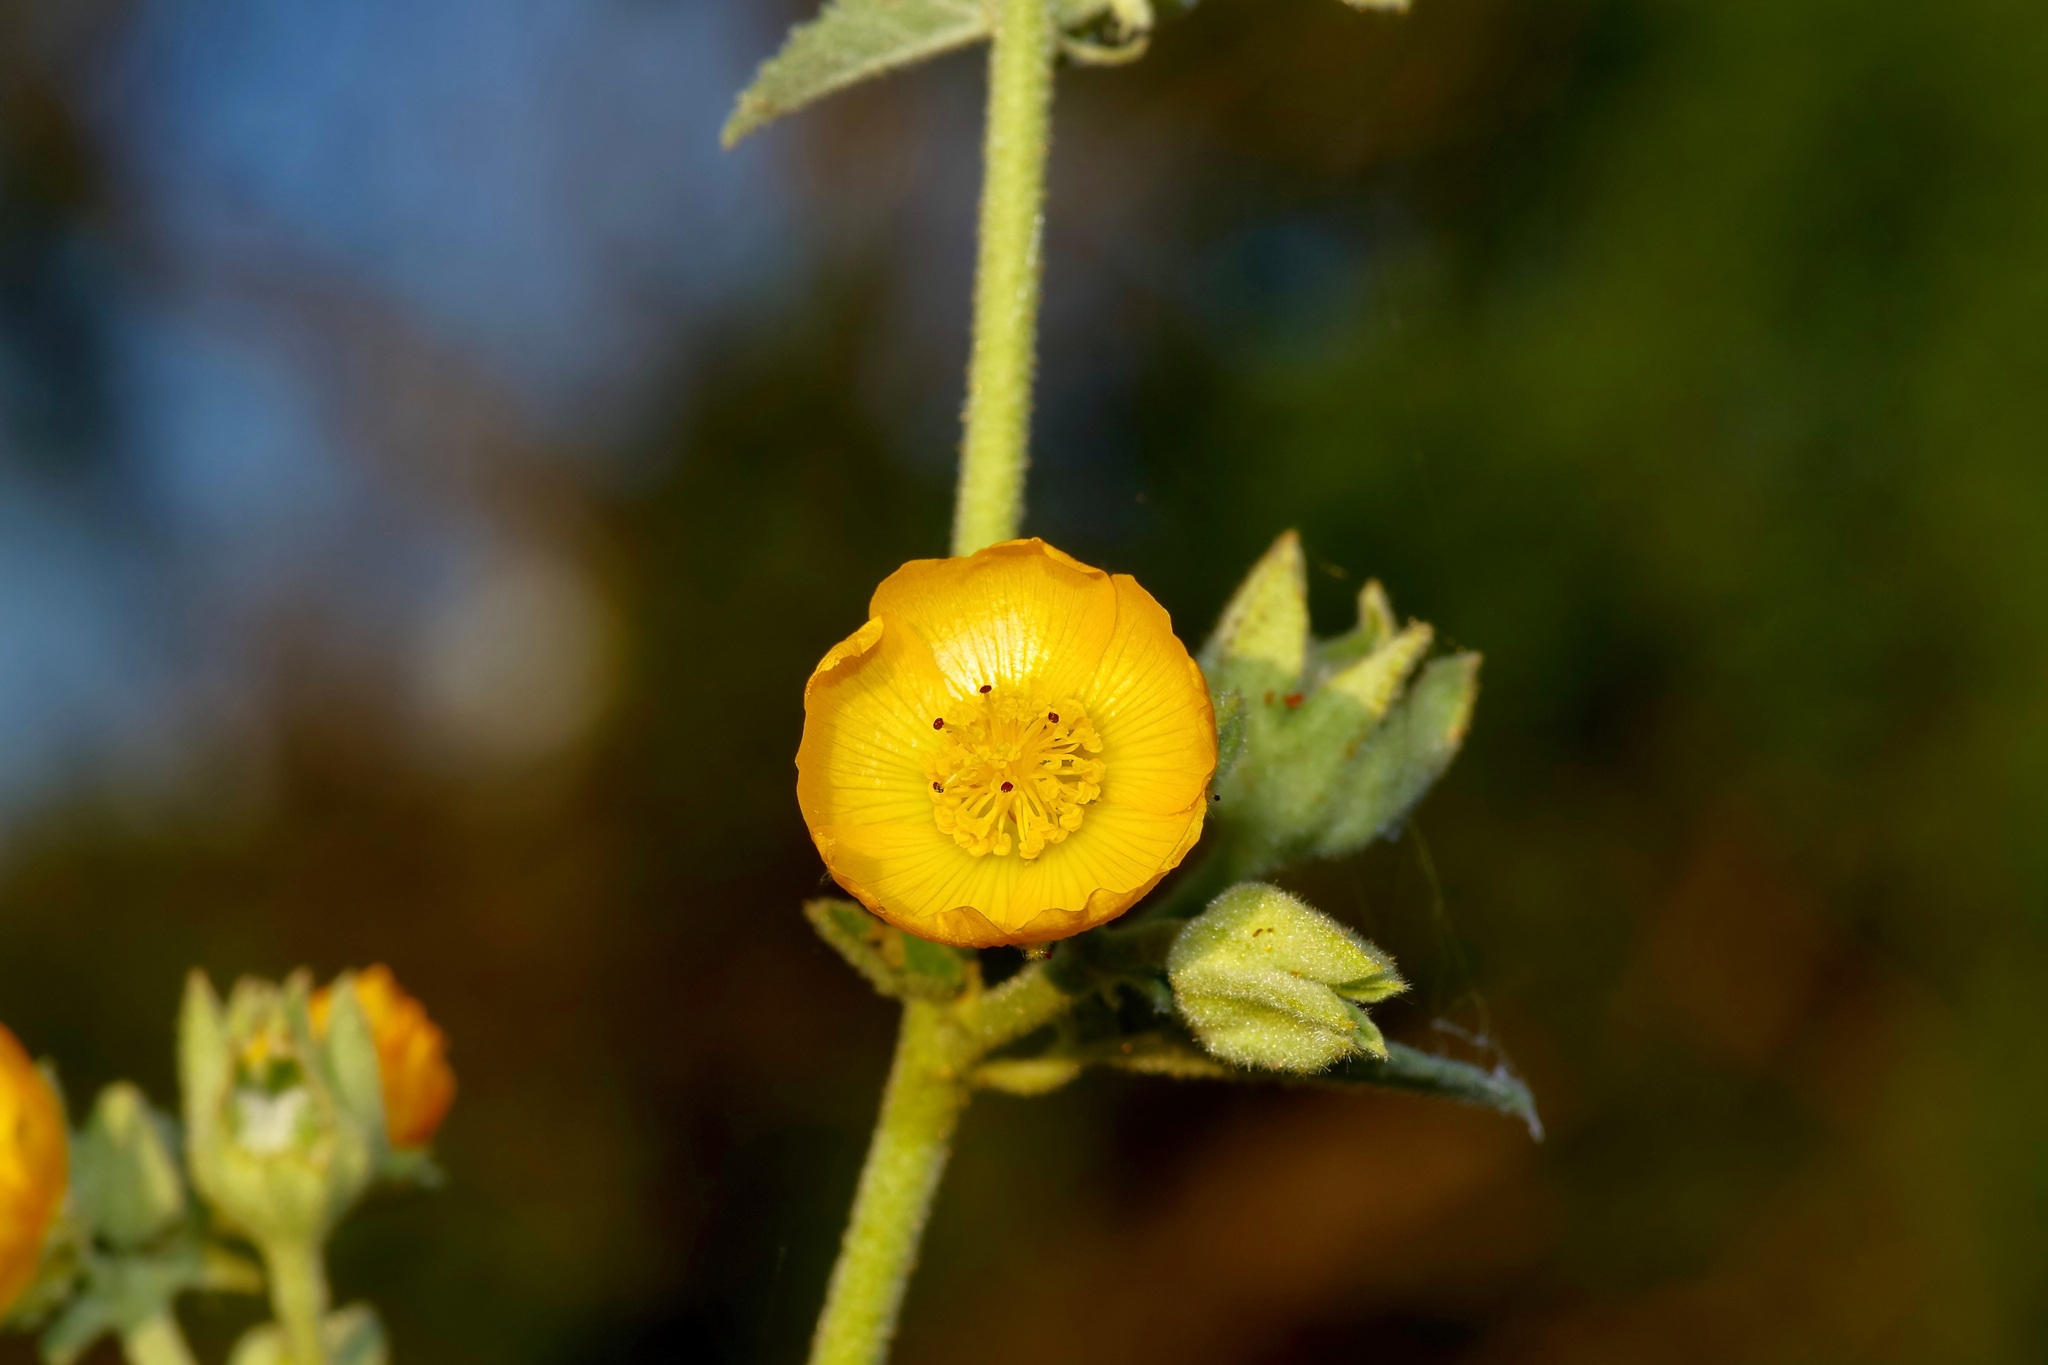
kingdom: Plantae
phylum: Tracheophyta
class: Magnoliopsida
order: Malvales
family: Malvaceae
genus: Allowissadula
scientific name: Allowissadula lozanoi
